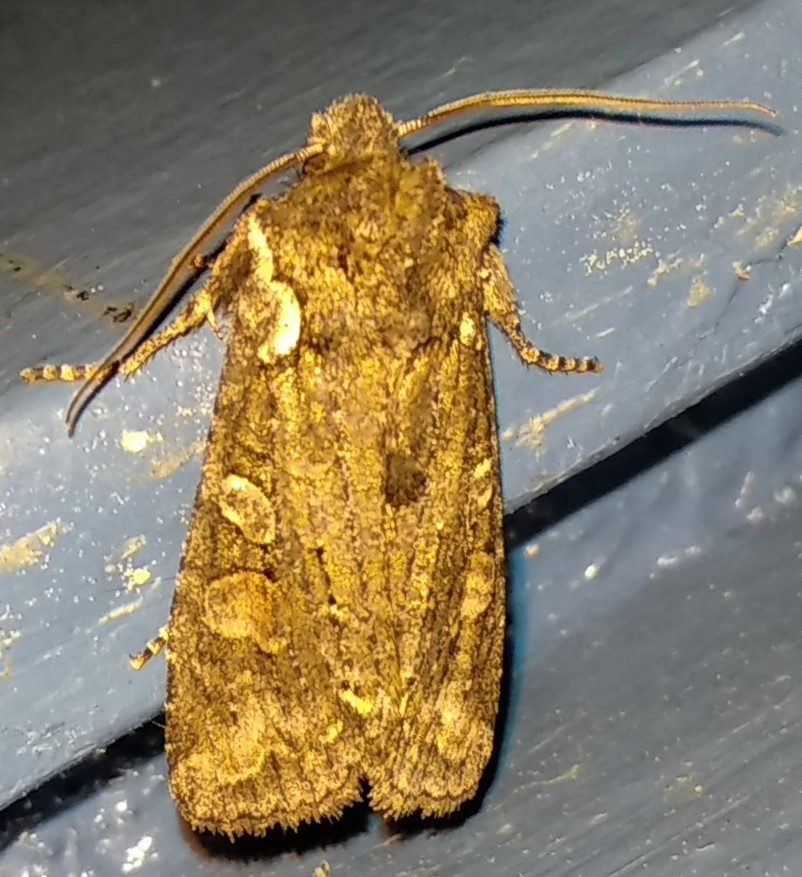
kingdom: Animalia
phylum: Arthropoda
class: Insecta
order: Lepidoptera
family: Noctuidae
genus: Lithophane
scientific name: Lithophane baileyi
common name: Bailey's pinion moth
